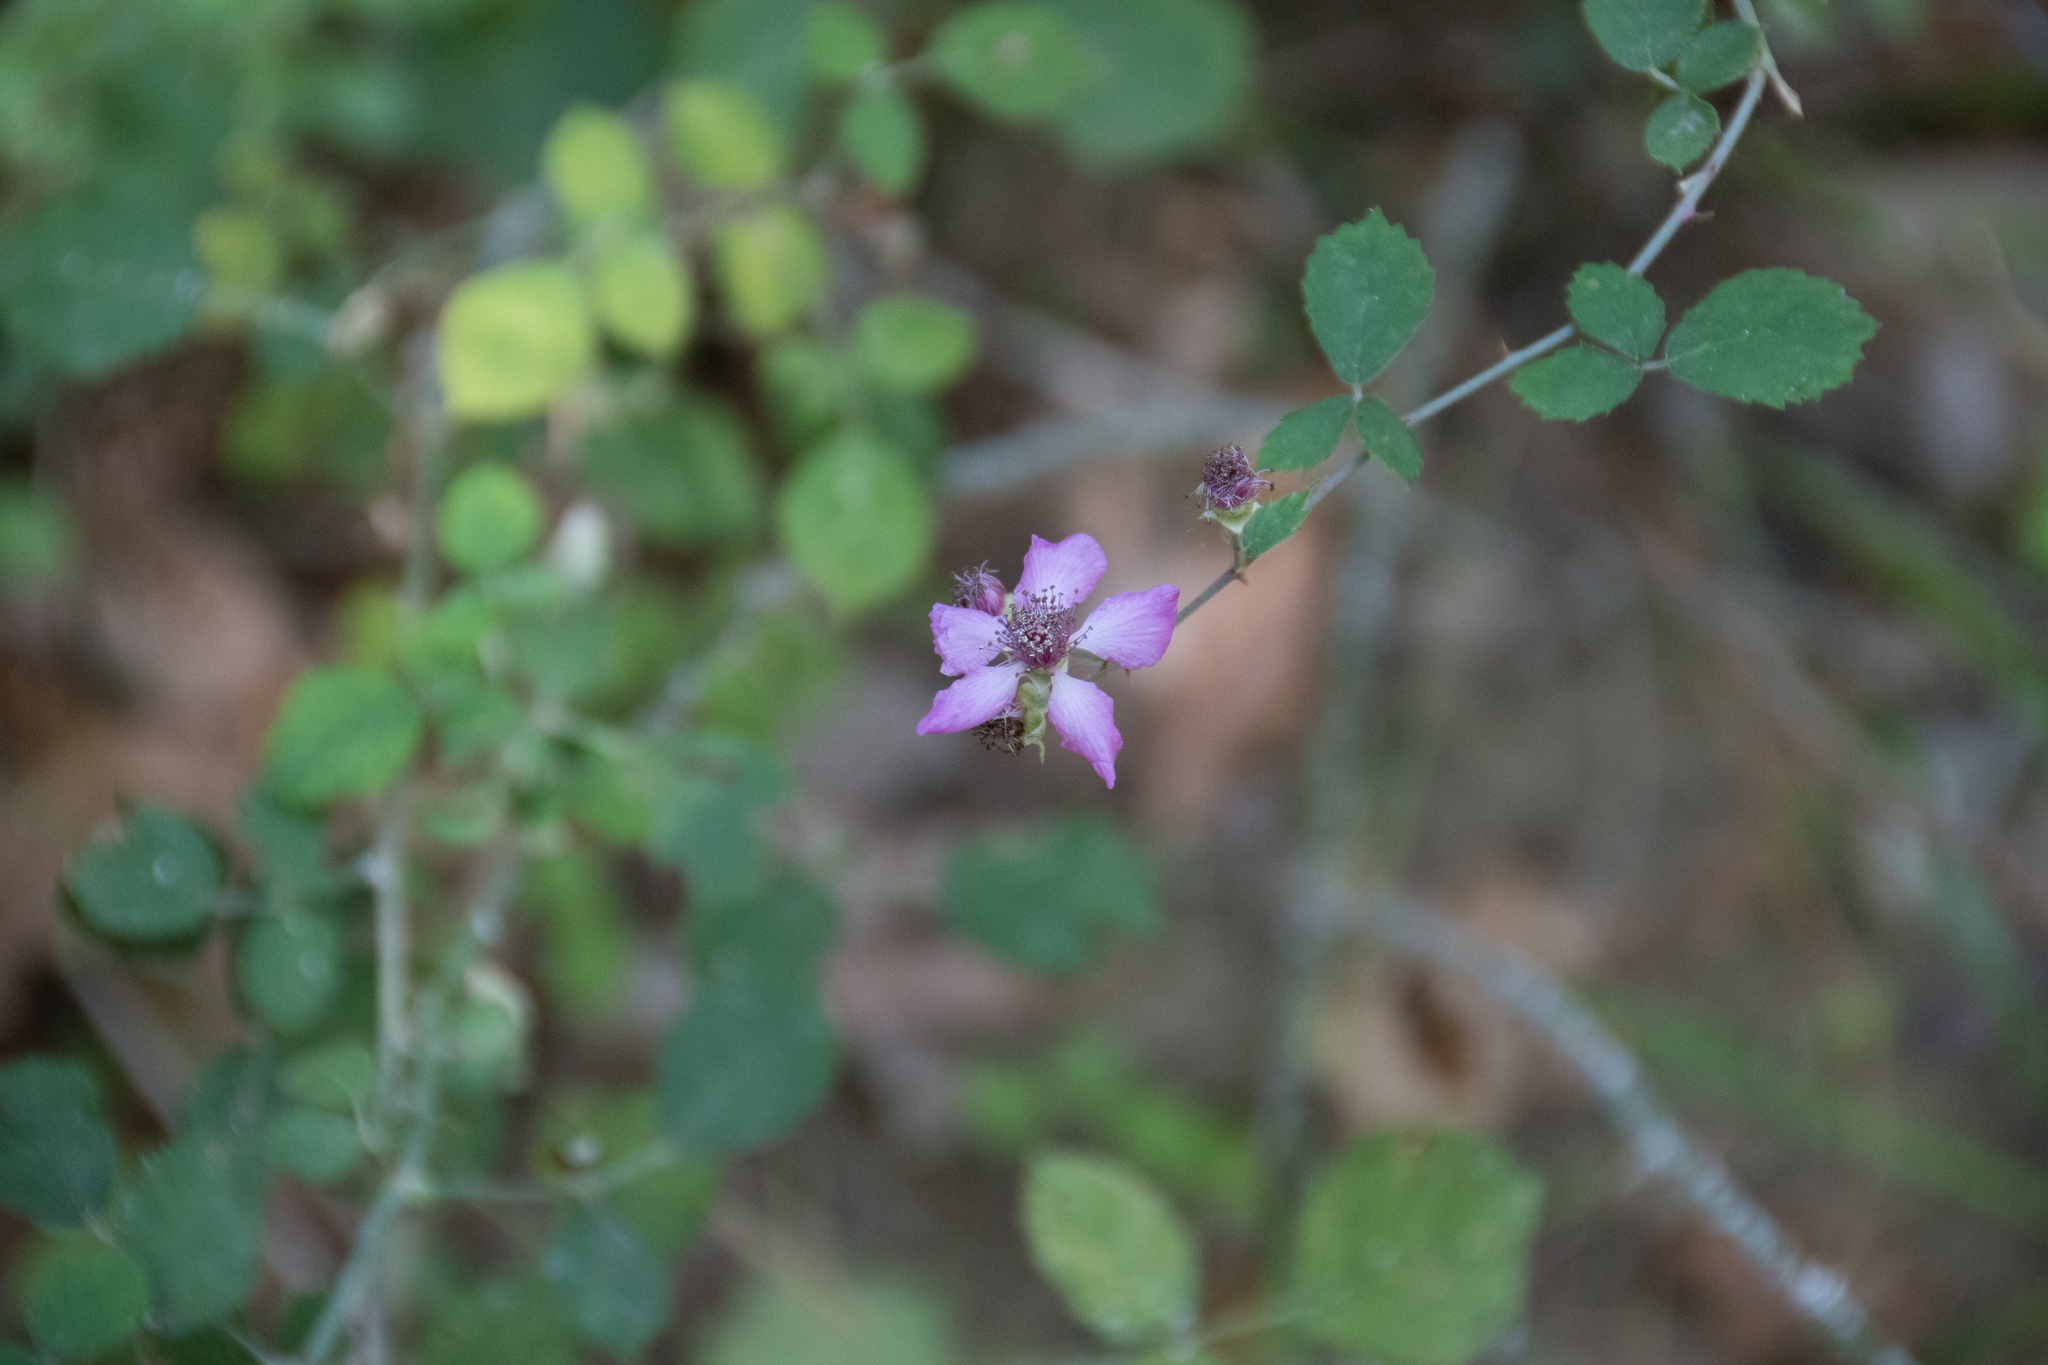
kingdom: Plantae
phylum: Tracheophyta
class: Magnoliopsida
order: Rosales
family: Rosaceae
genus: Rubus
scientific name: Rubus sanctus
